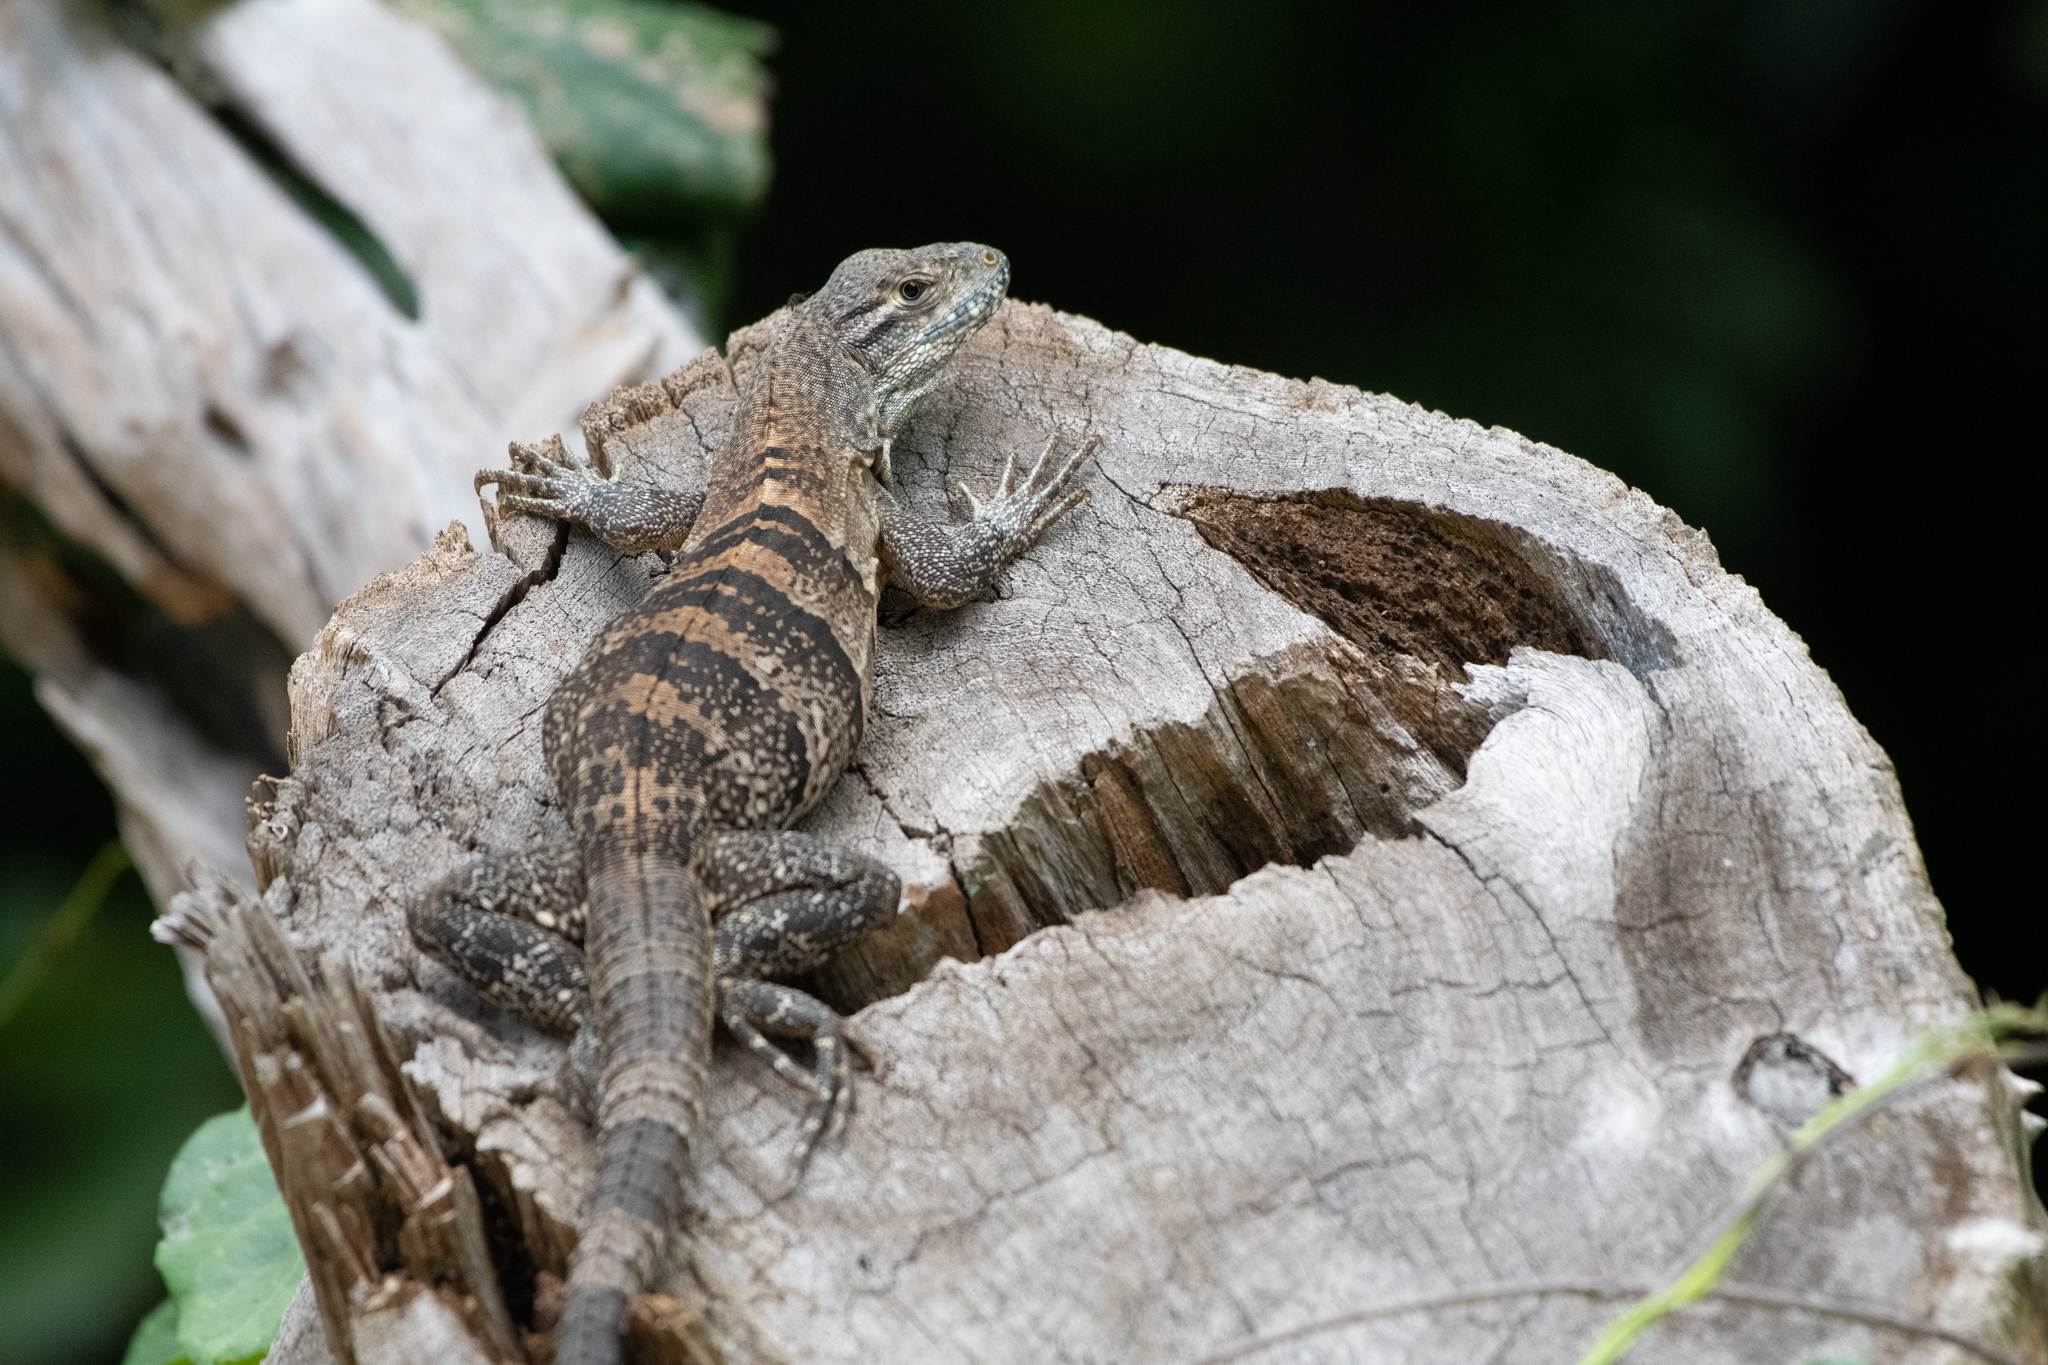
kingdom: Animalia
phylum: Chordata
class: Squamata
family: Iguanidae
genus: Ctenosaura
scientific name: Ctenosaura similis
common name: Black spiny-tailed iguana
